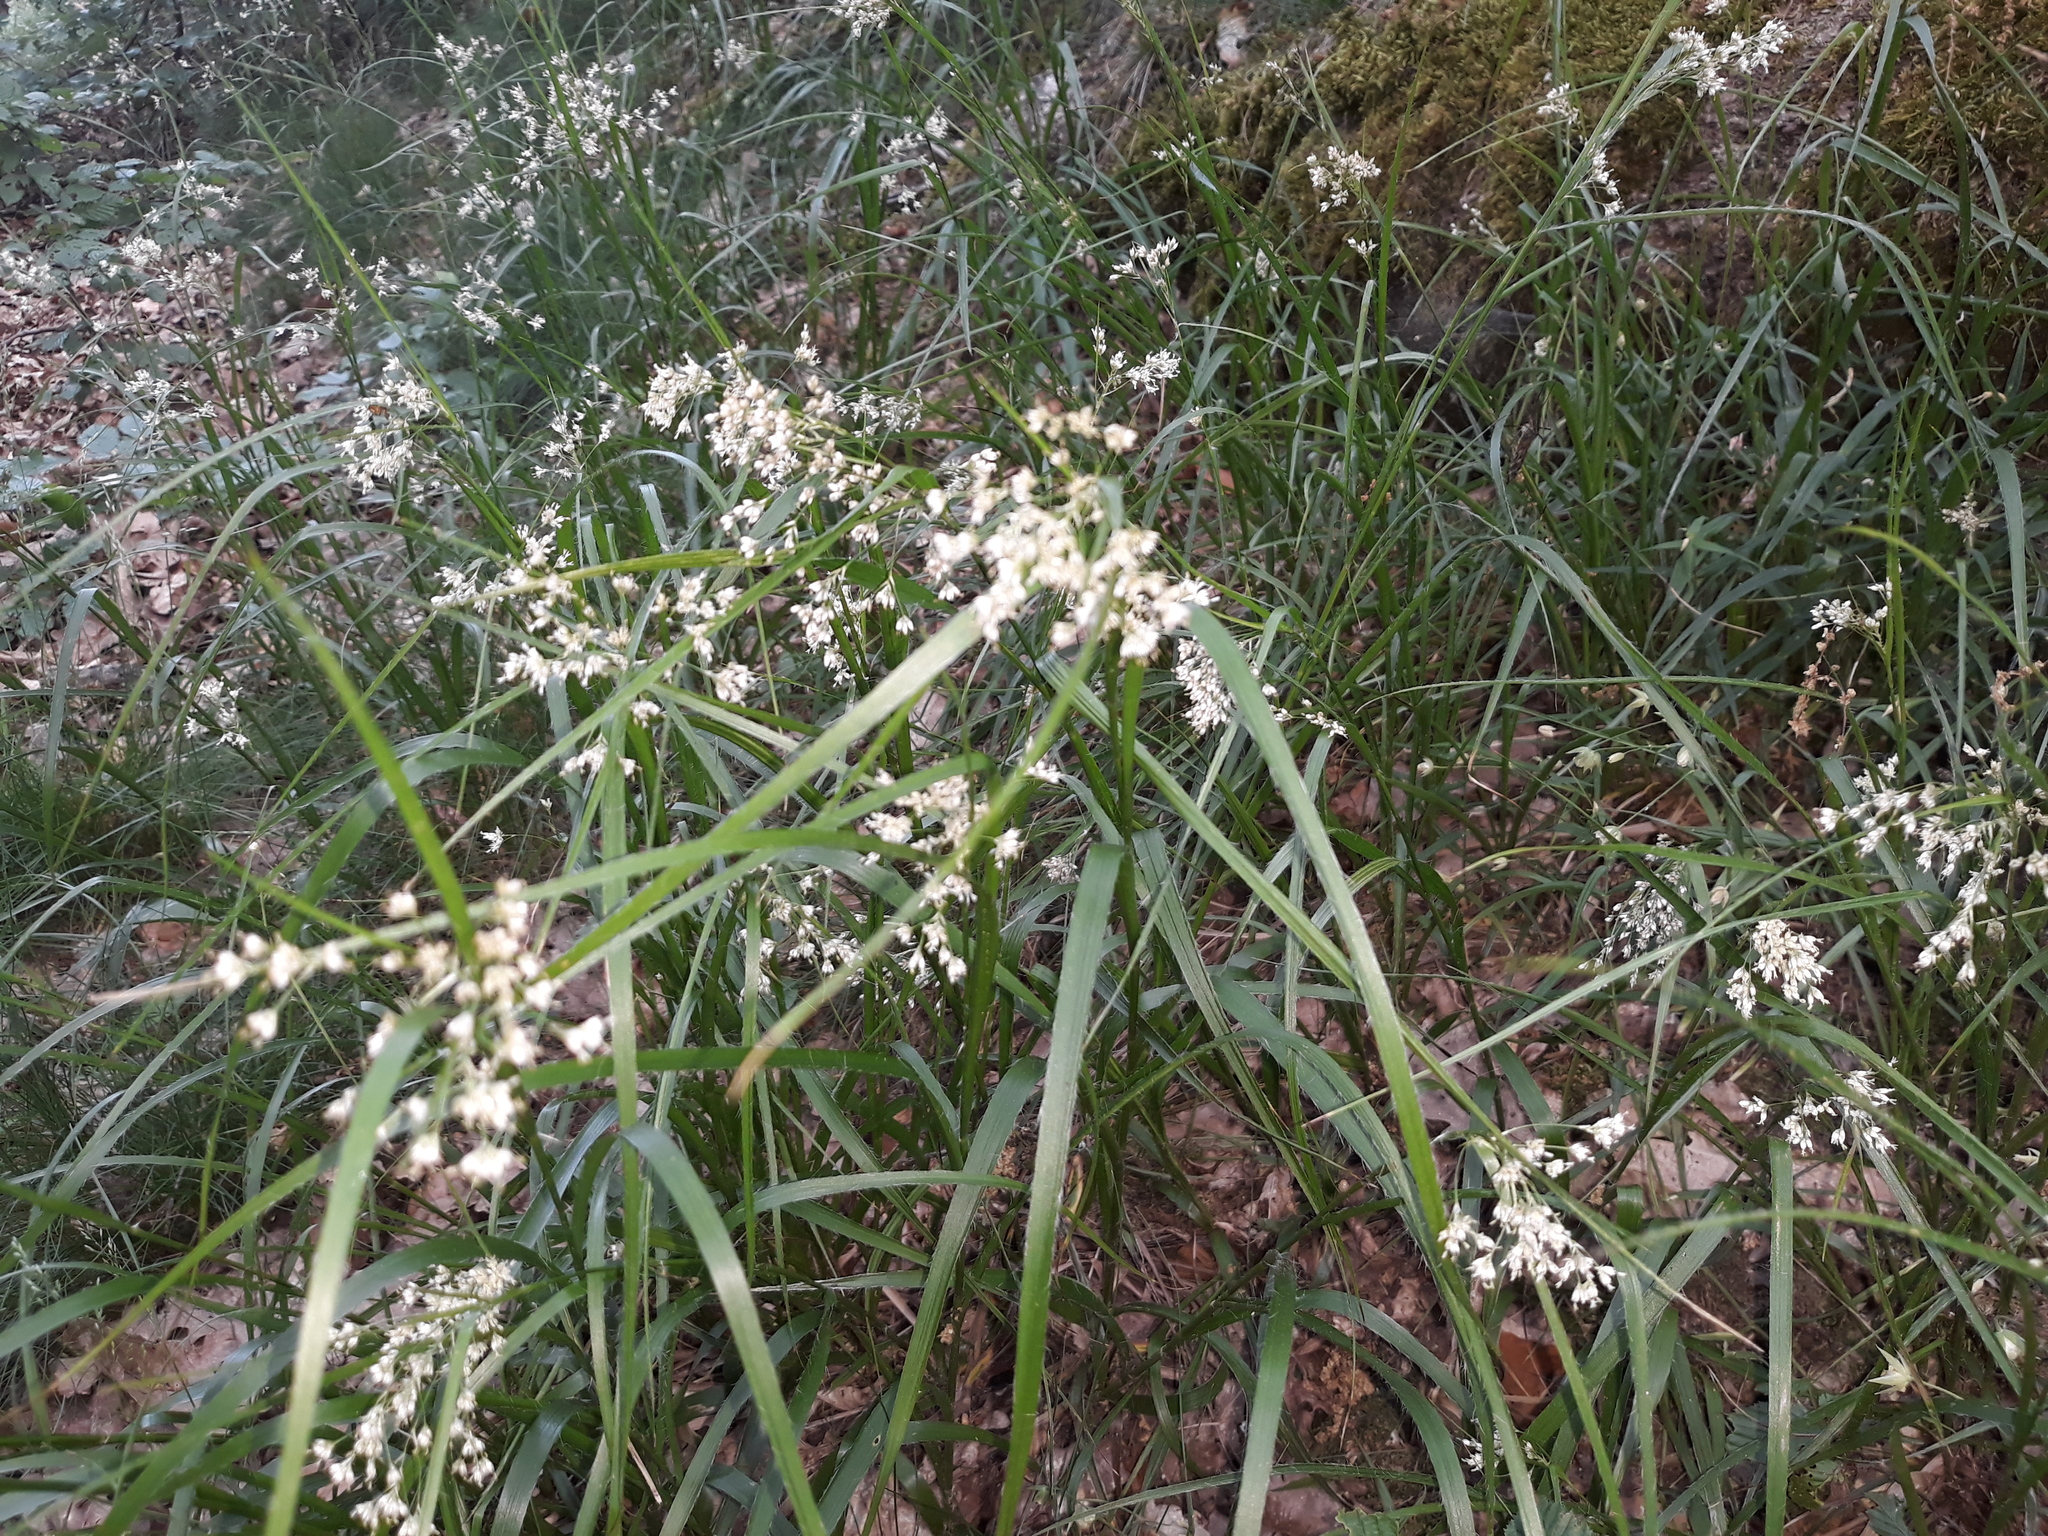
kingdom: Plantae
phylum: Tracheophyta
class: Liliopsida
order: Poales
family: Juncaceae
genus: Luzula
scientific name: Luzula luzuloides
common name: White wood-rush
